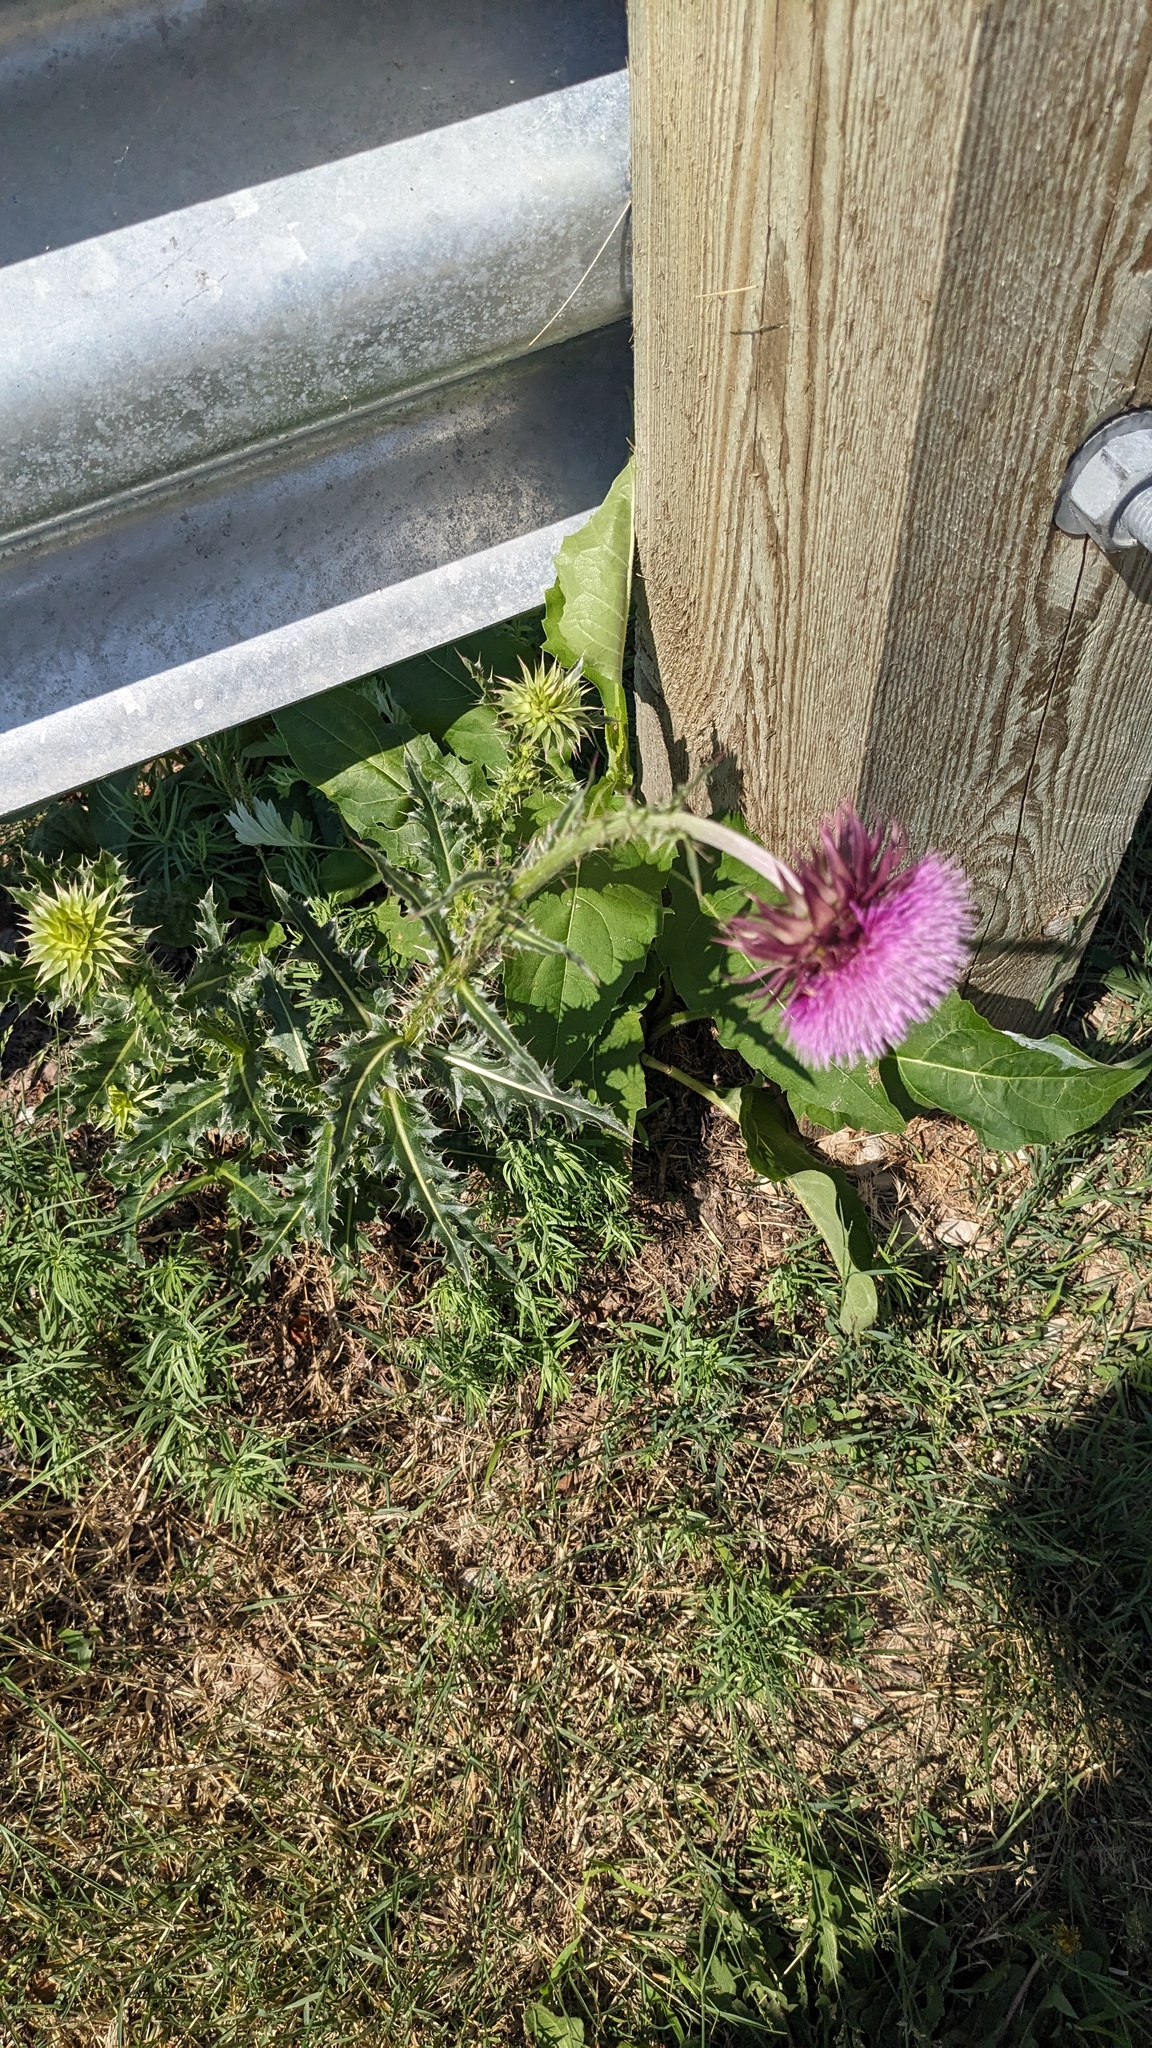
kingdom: Plantae
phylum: Tracheophyta
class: Magnoliopsida
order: Asterales
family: Asteraceae
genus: Carduus
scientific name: Carduus nutans
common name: Musk thistle
